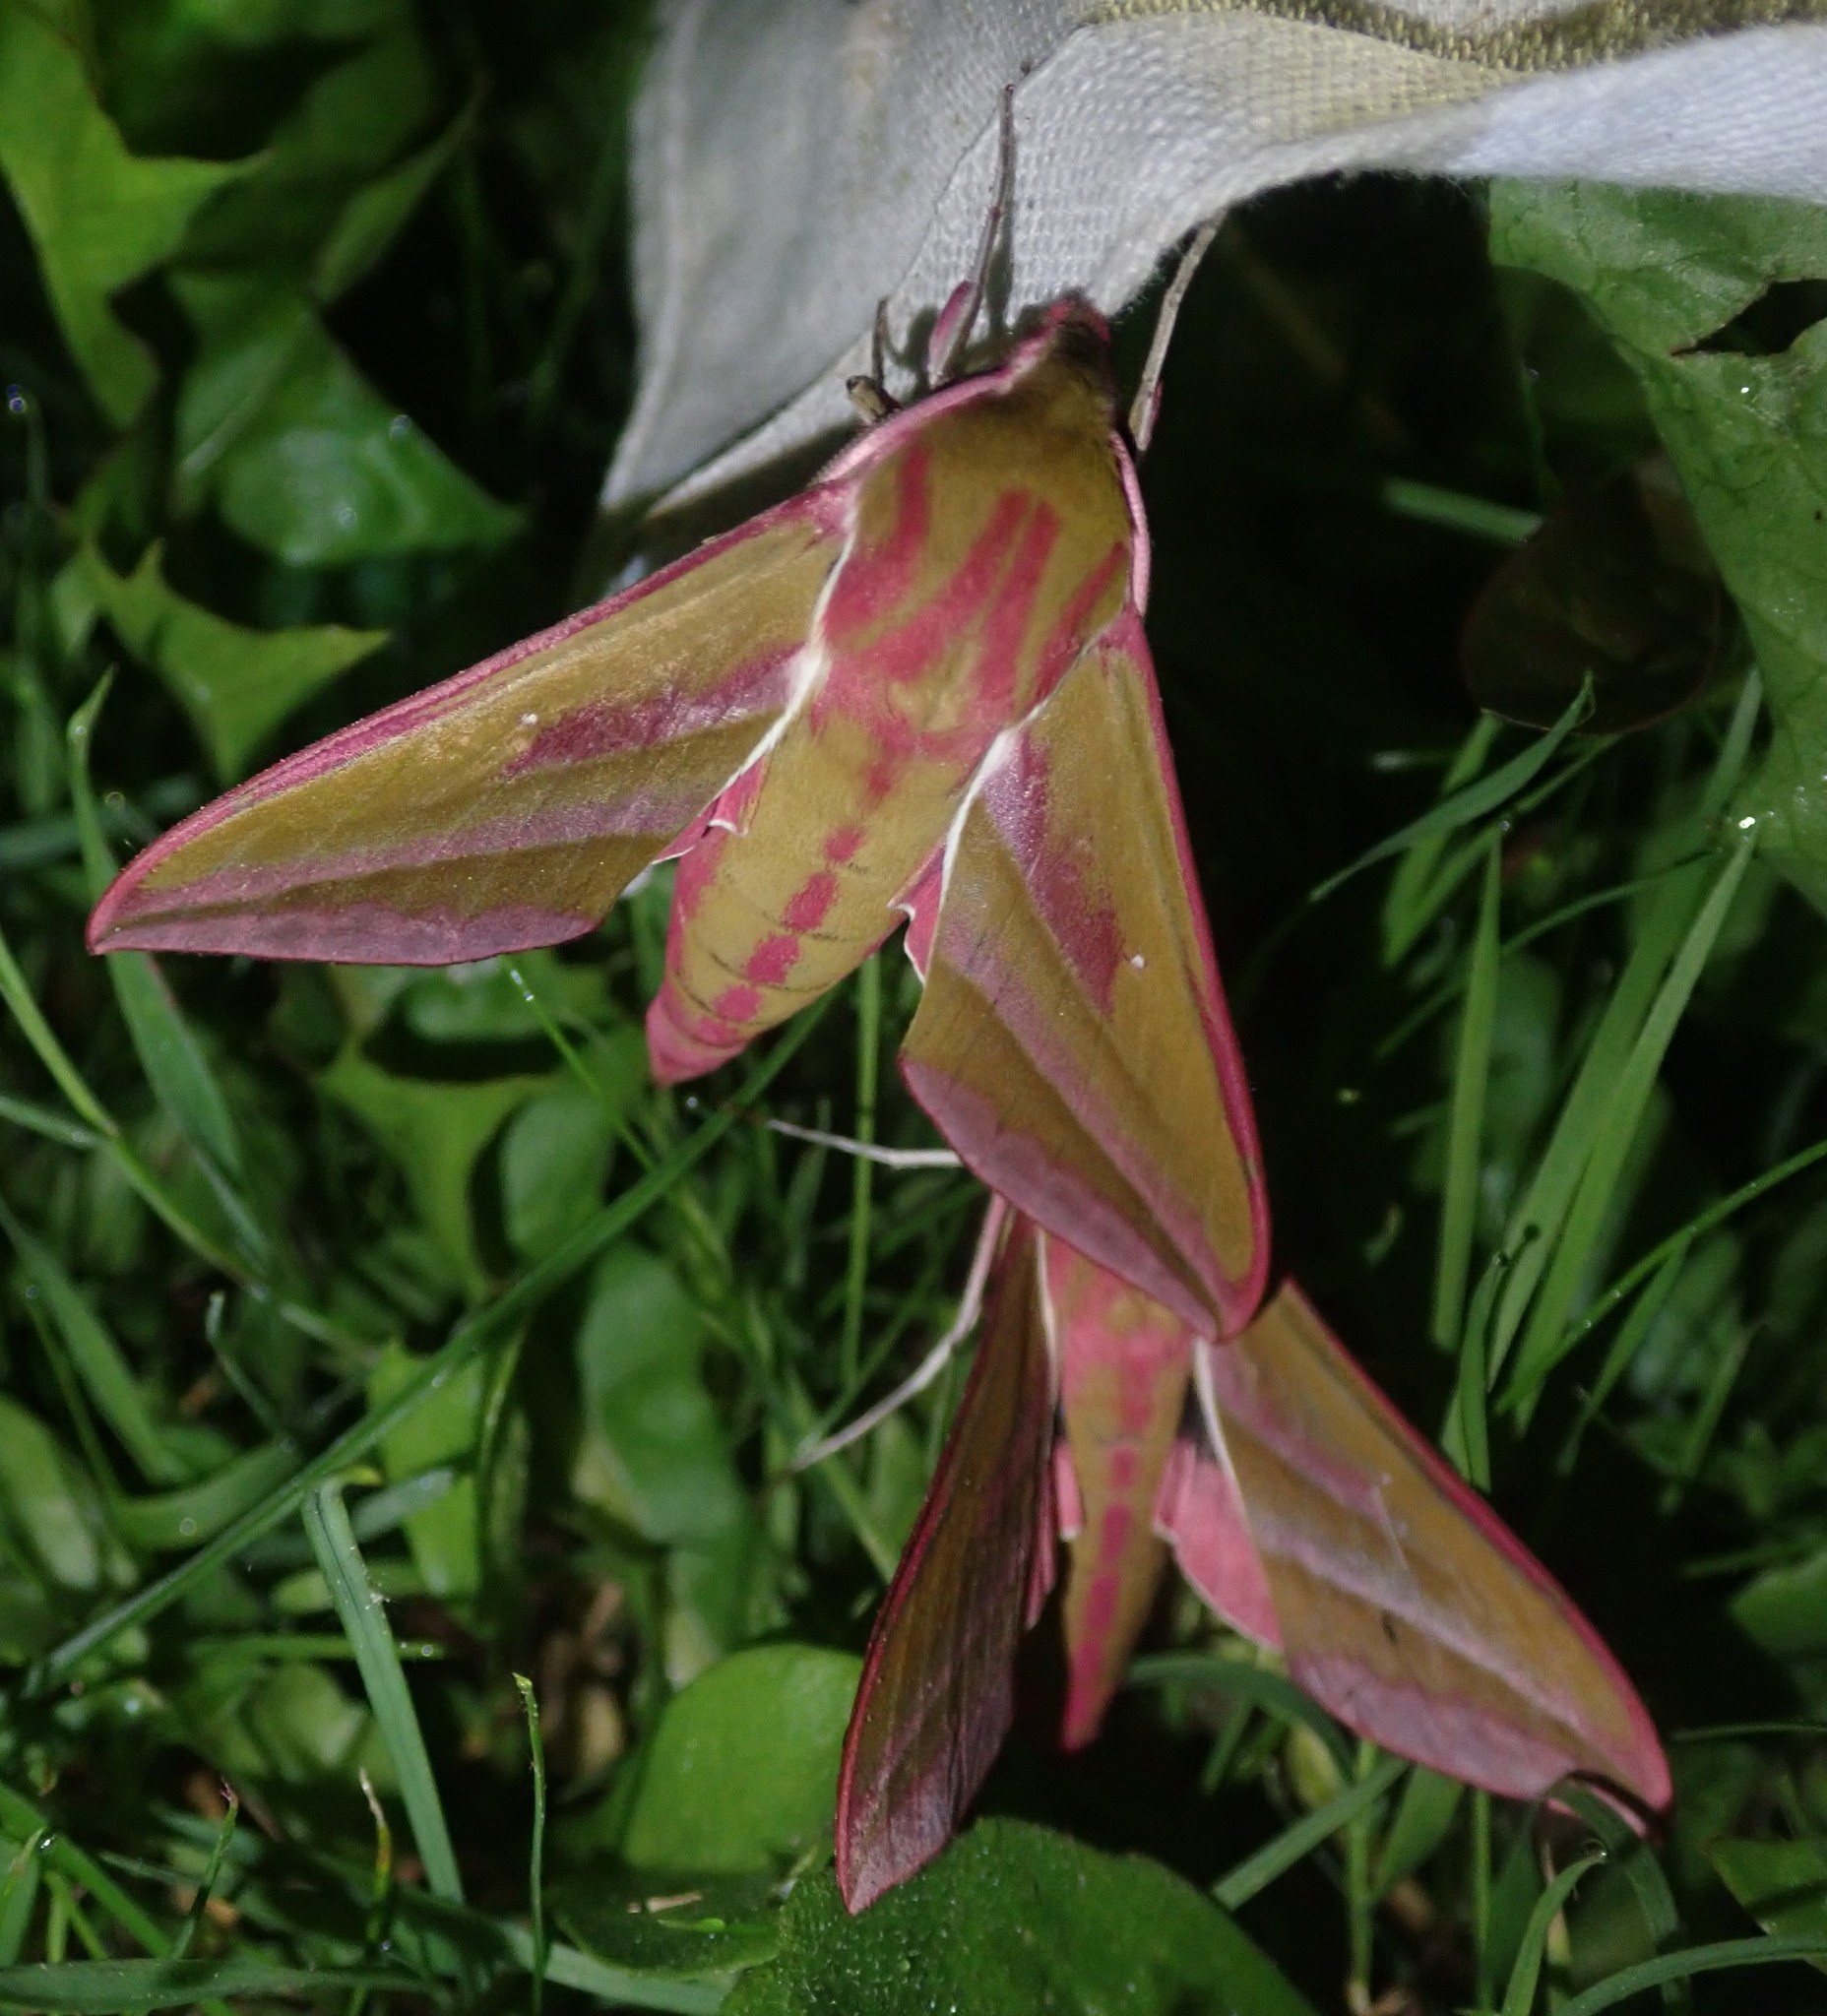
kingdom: Animalia
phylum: Arthropoda
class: Insecta
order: Lepidoptera
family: Sphingidae
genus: Deilephila
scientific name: Deilephila elpenor
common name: Elephant hawk-moth
